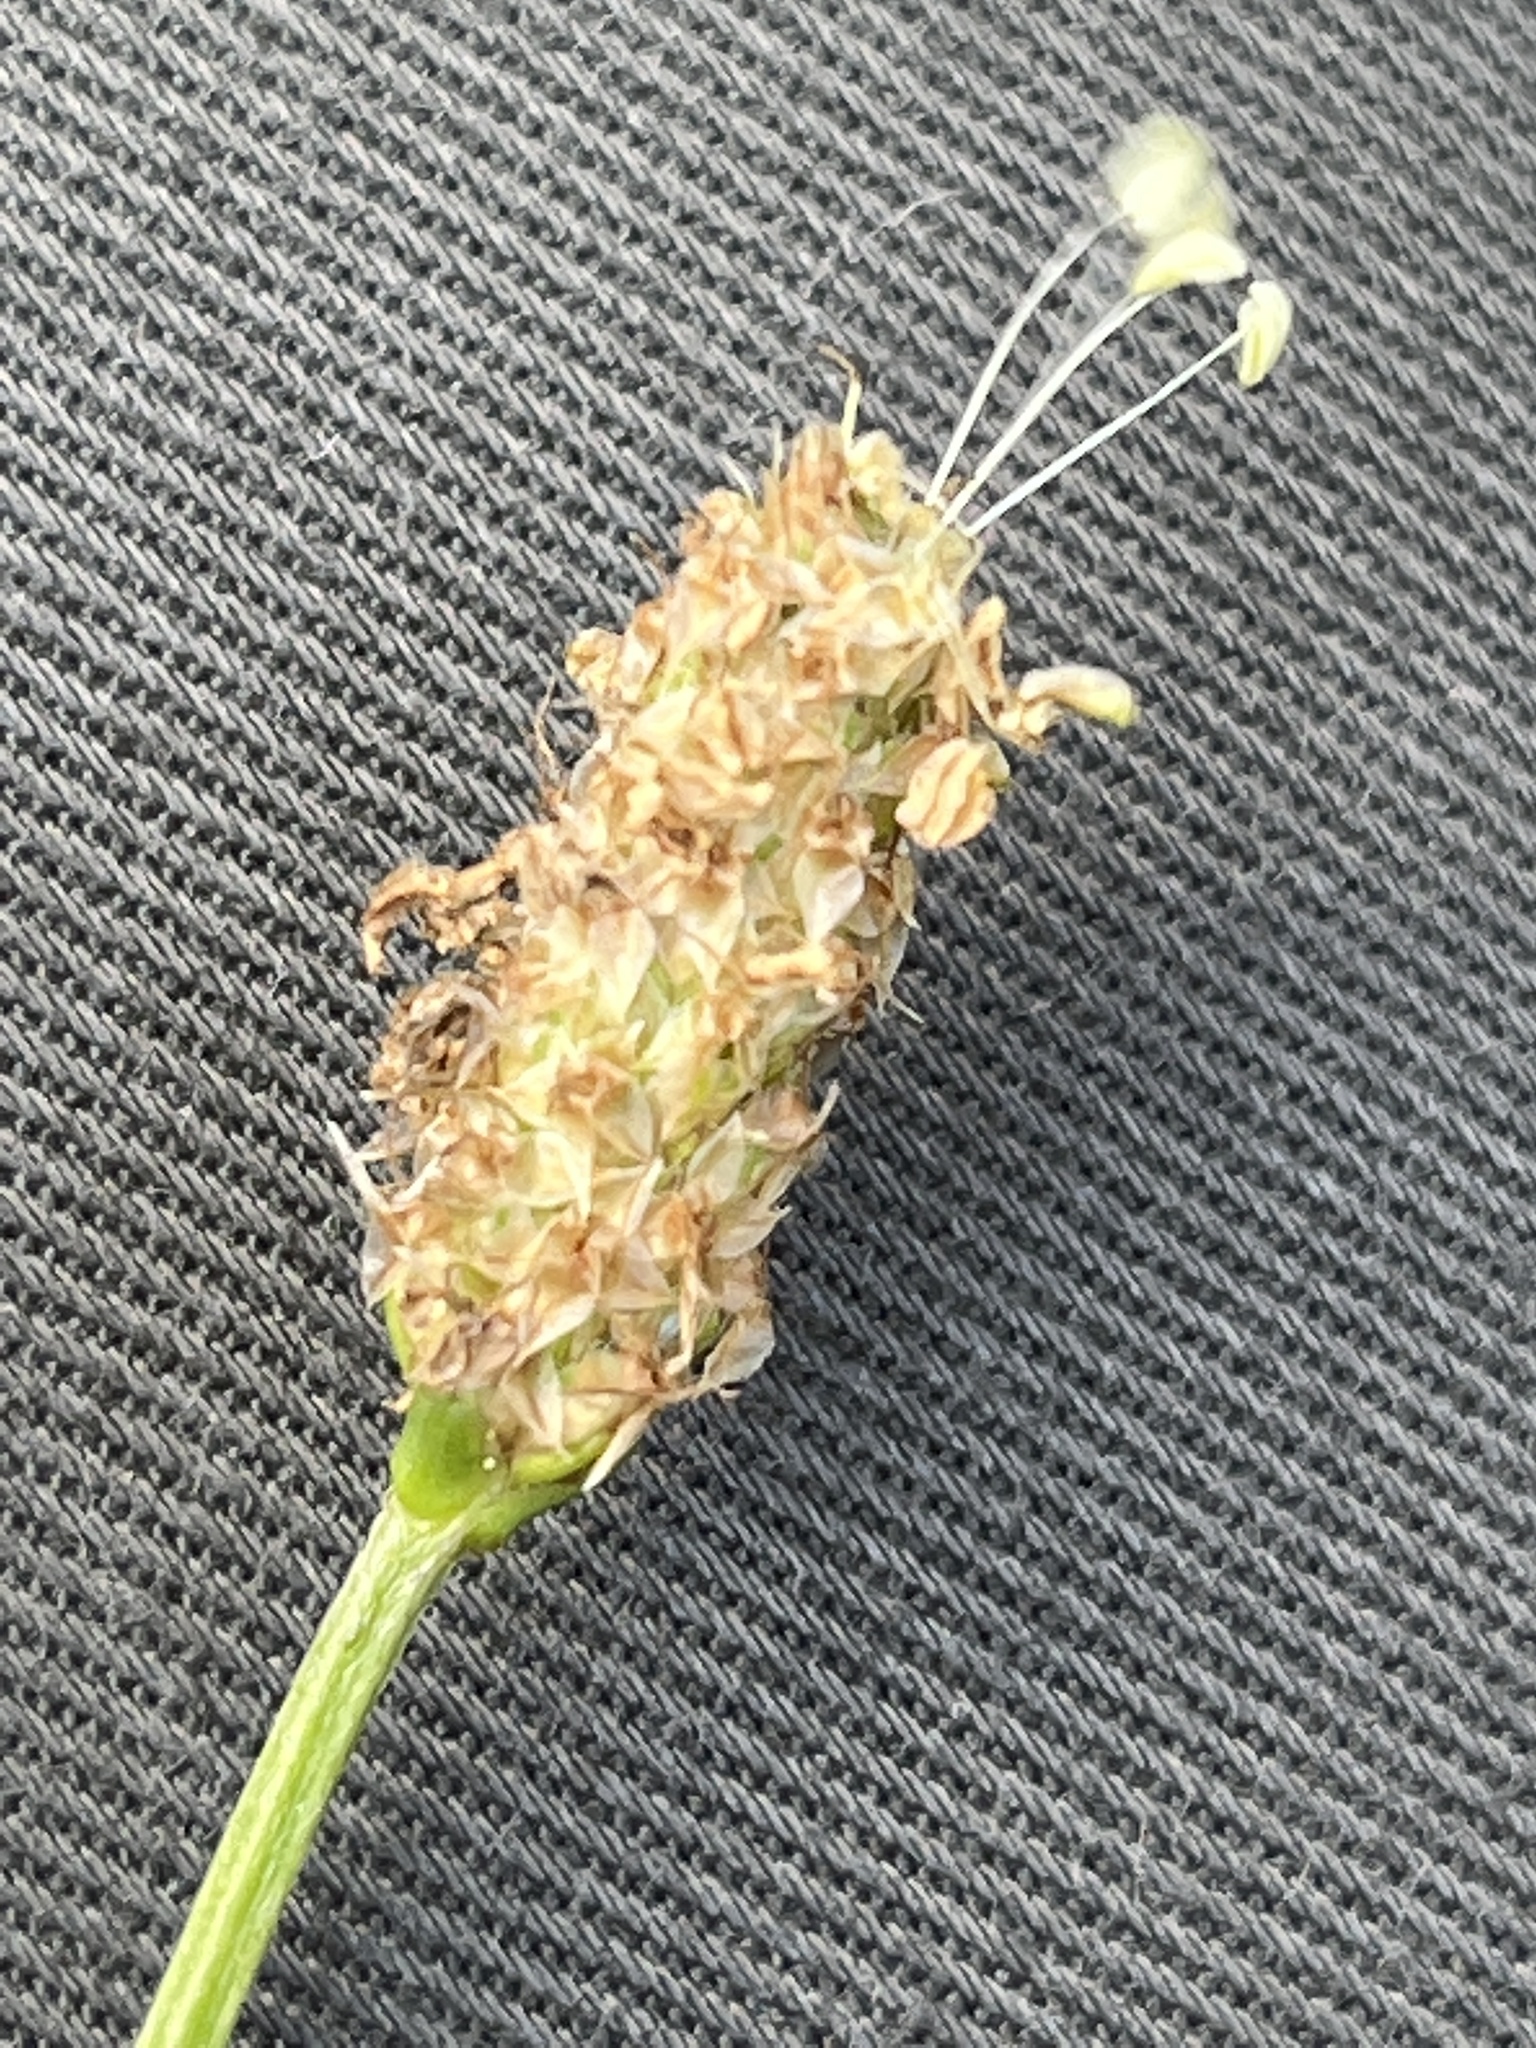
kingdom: Plantae
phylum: Tracheophyta
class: Magnoliopsida
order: Lamiales
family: Plantaginaceae
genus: Plantago
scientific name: Plantago lanceolata
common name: Ribwort plantain
